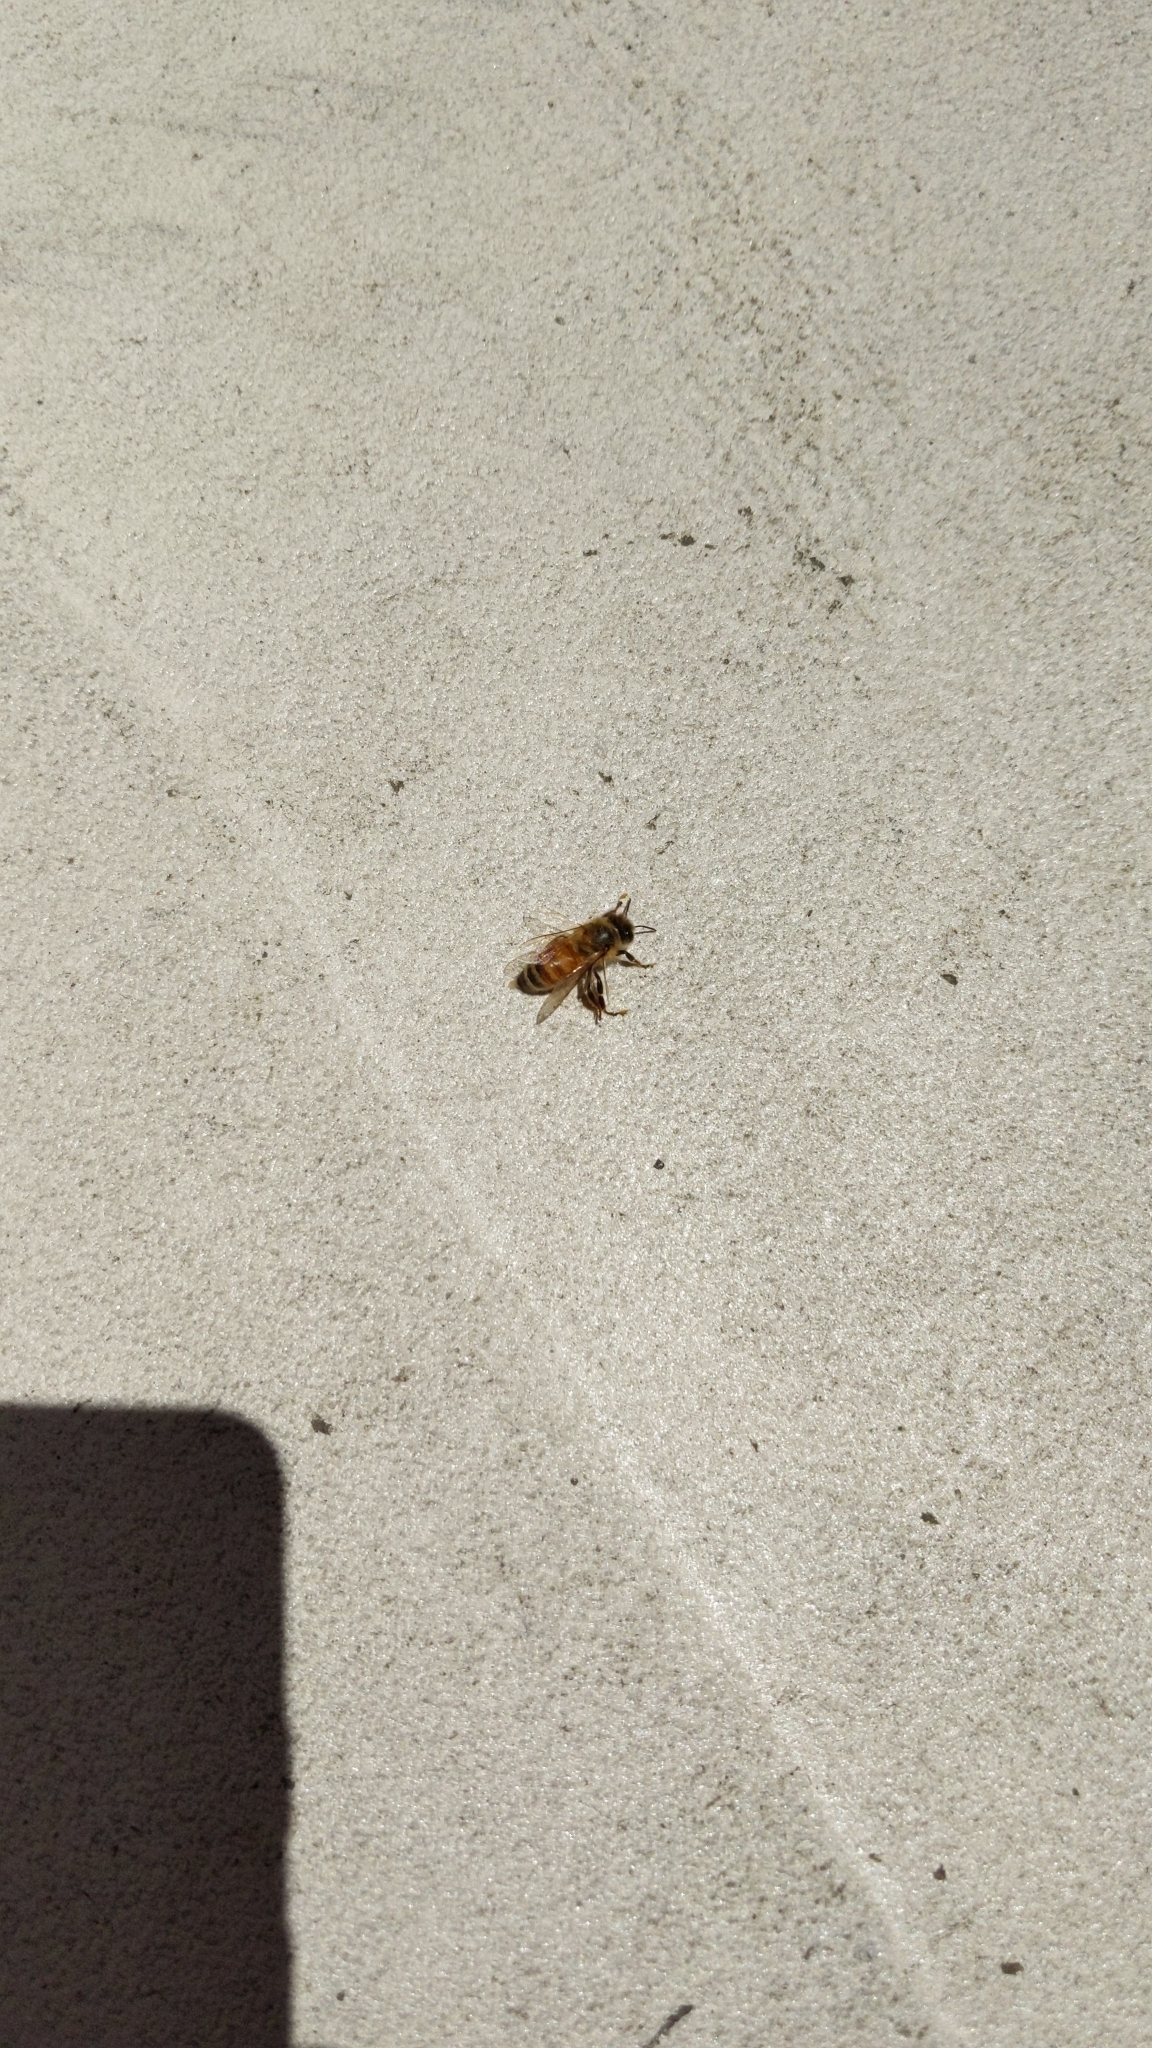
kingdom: Animalia
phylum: Arthropoda
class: Insecta
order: Hymenoptera
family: Apidae
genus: Apis
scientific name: Apis mellifera
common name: Honey bee
